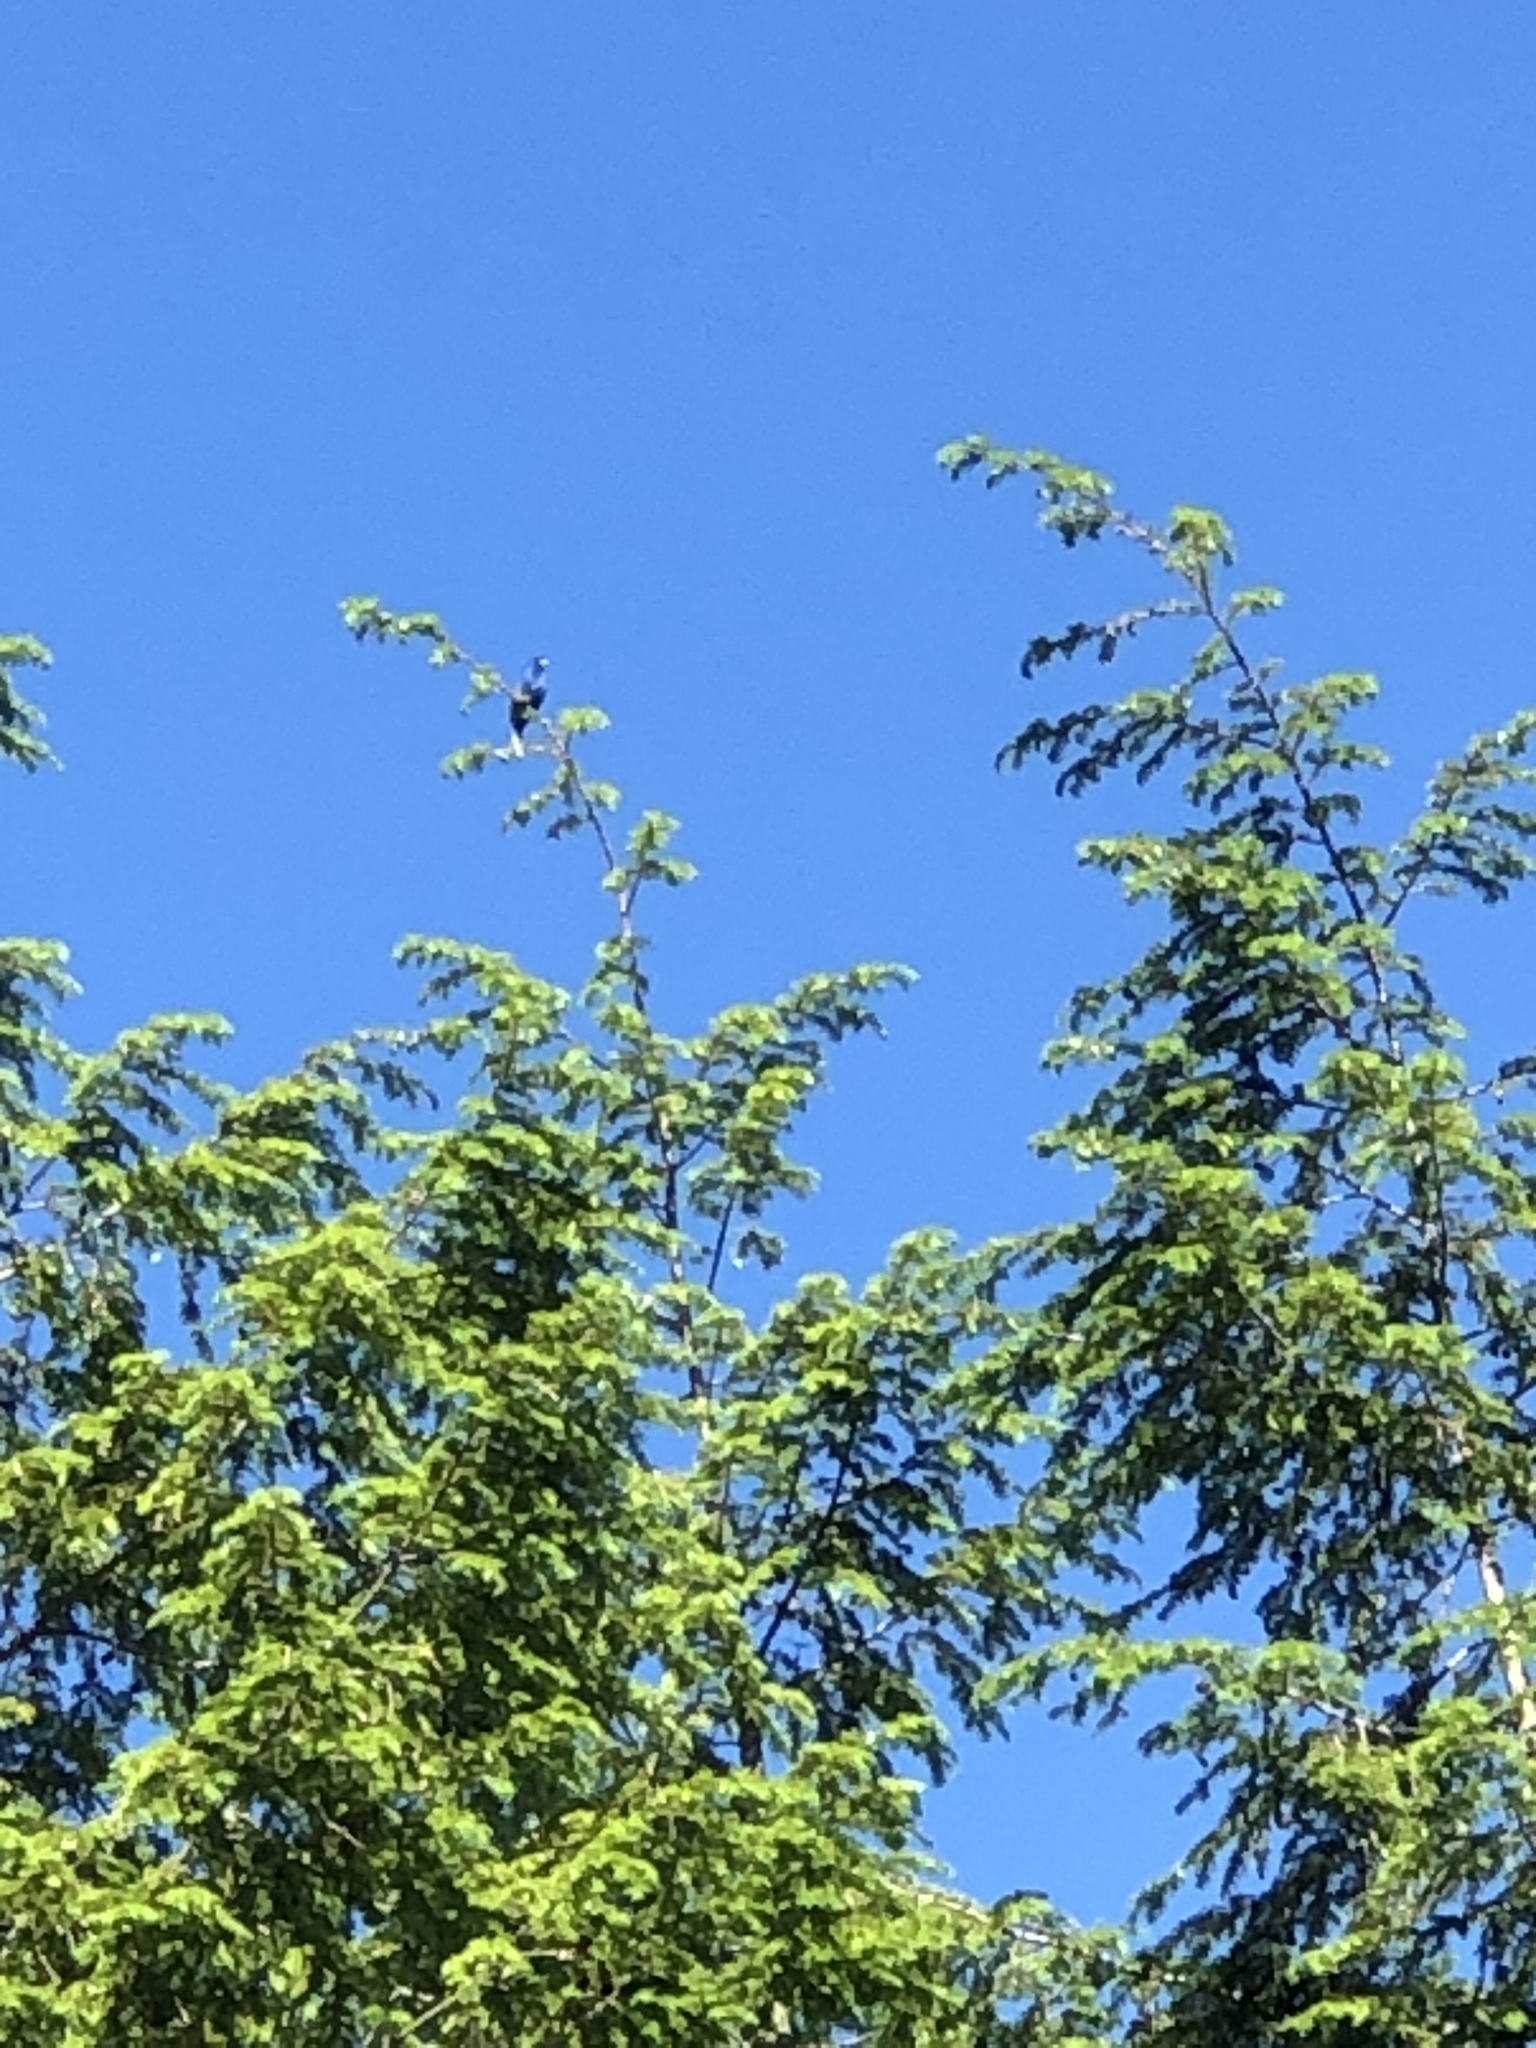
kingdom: Animalia
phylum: Chordata
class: Aves
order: Passeriformes
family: Cardinalidae
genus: Passerina
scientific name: Passerina cyanea
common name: Indigo bunting
